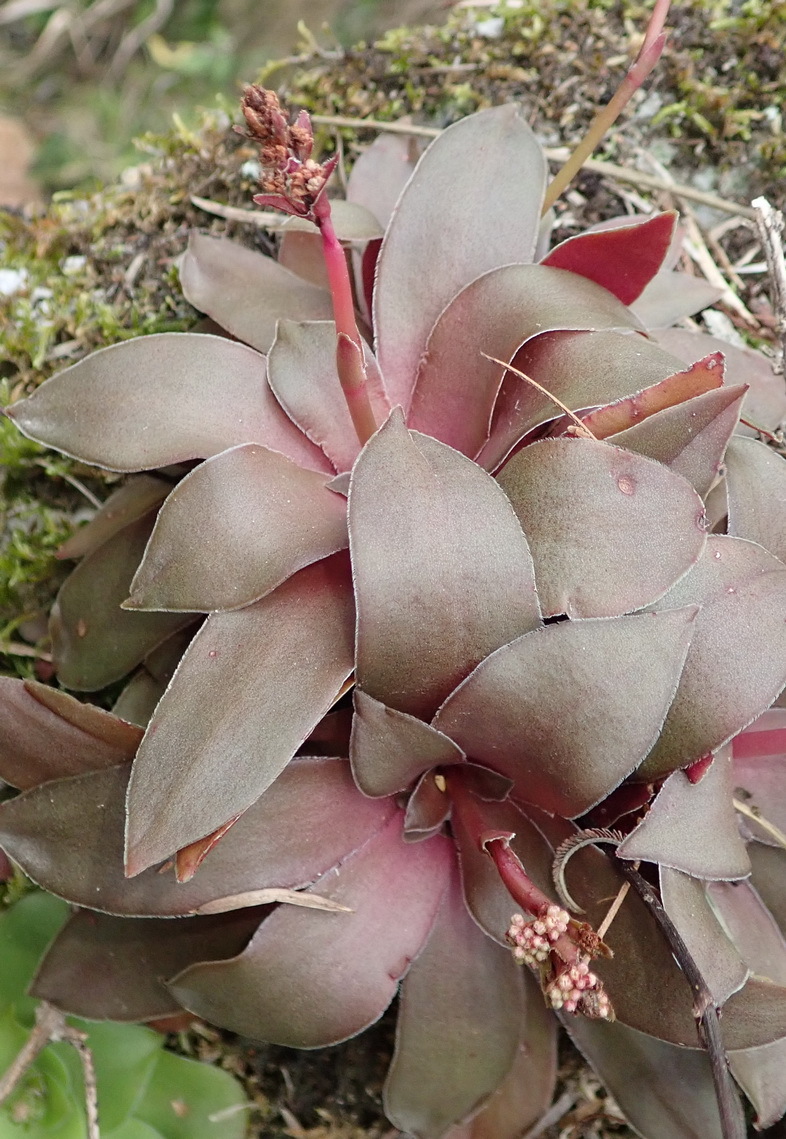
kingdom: Plantae
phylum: Tracheophyta
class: Magnoliopsida
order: Saxifragales
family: Crassulaceae
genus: Crassula
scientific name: Crassula orbicularis
